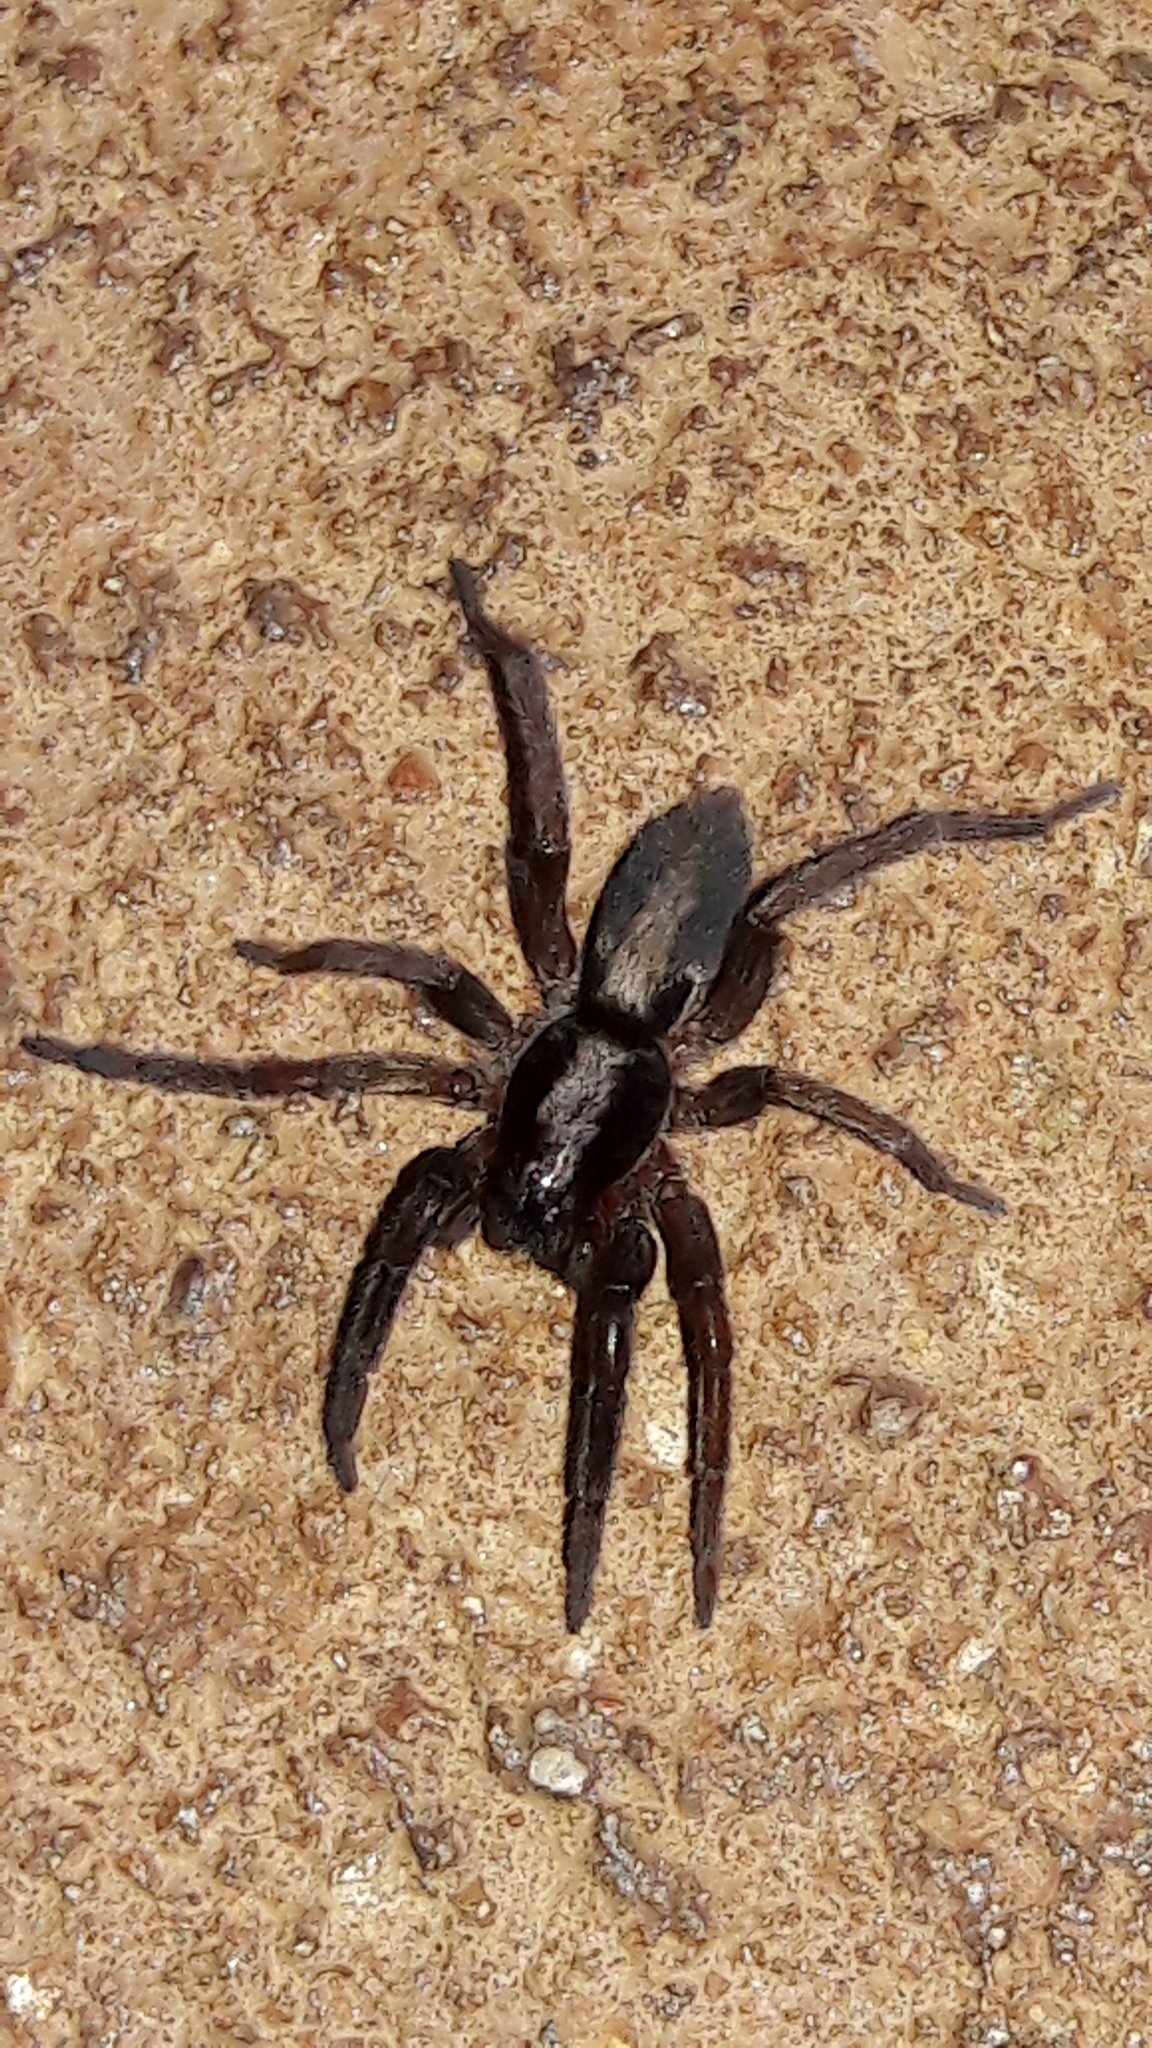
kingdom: Animalia
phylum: Arthropoda
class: Arachnida
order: Araneae
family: Miturgidae
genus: Teminius
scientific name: Teminius insularis
